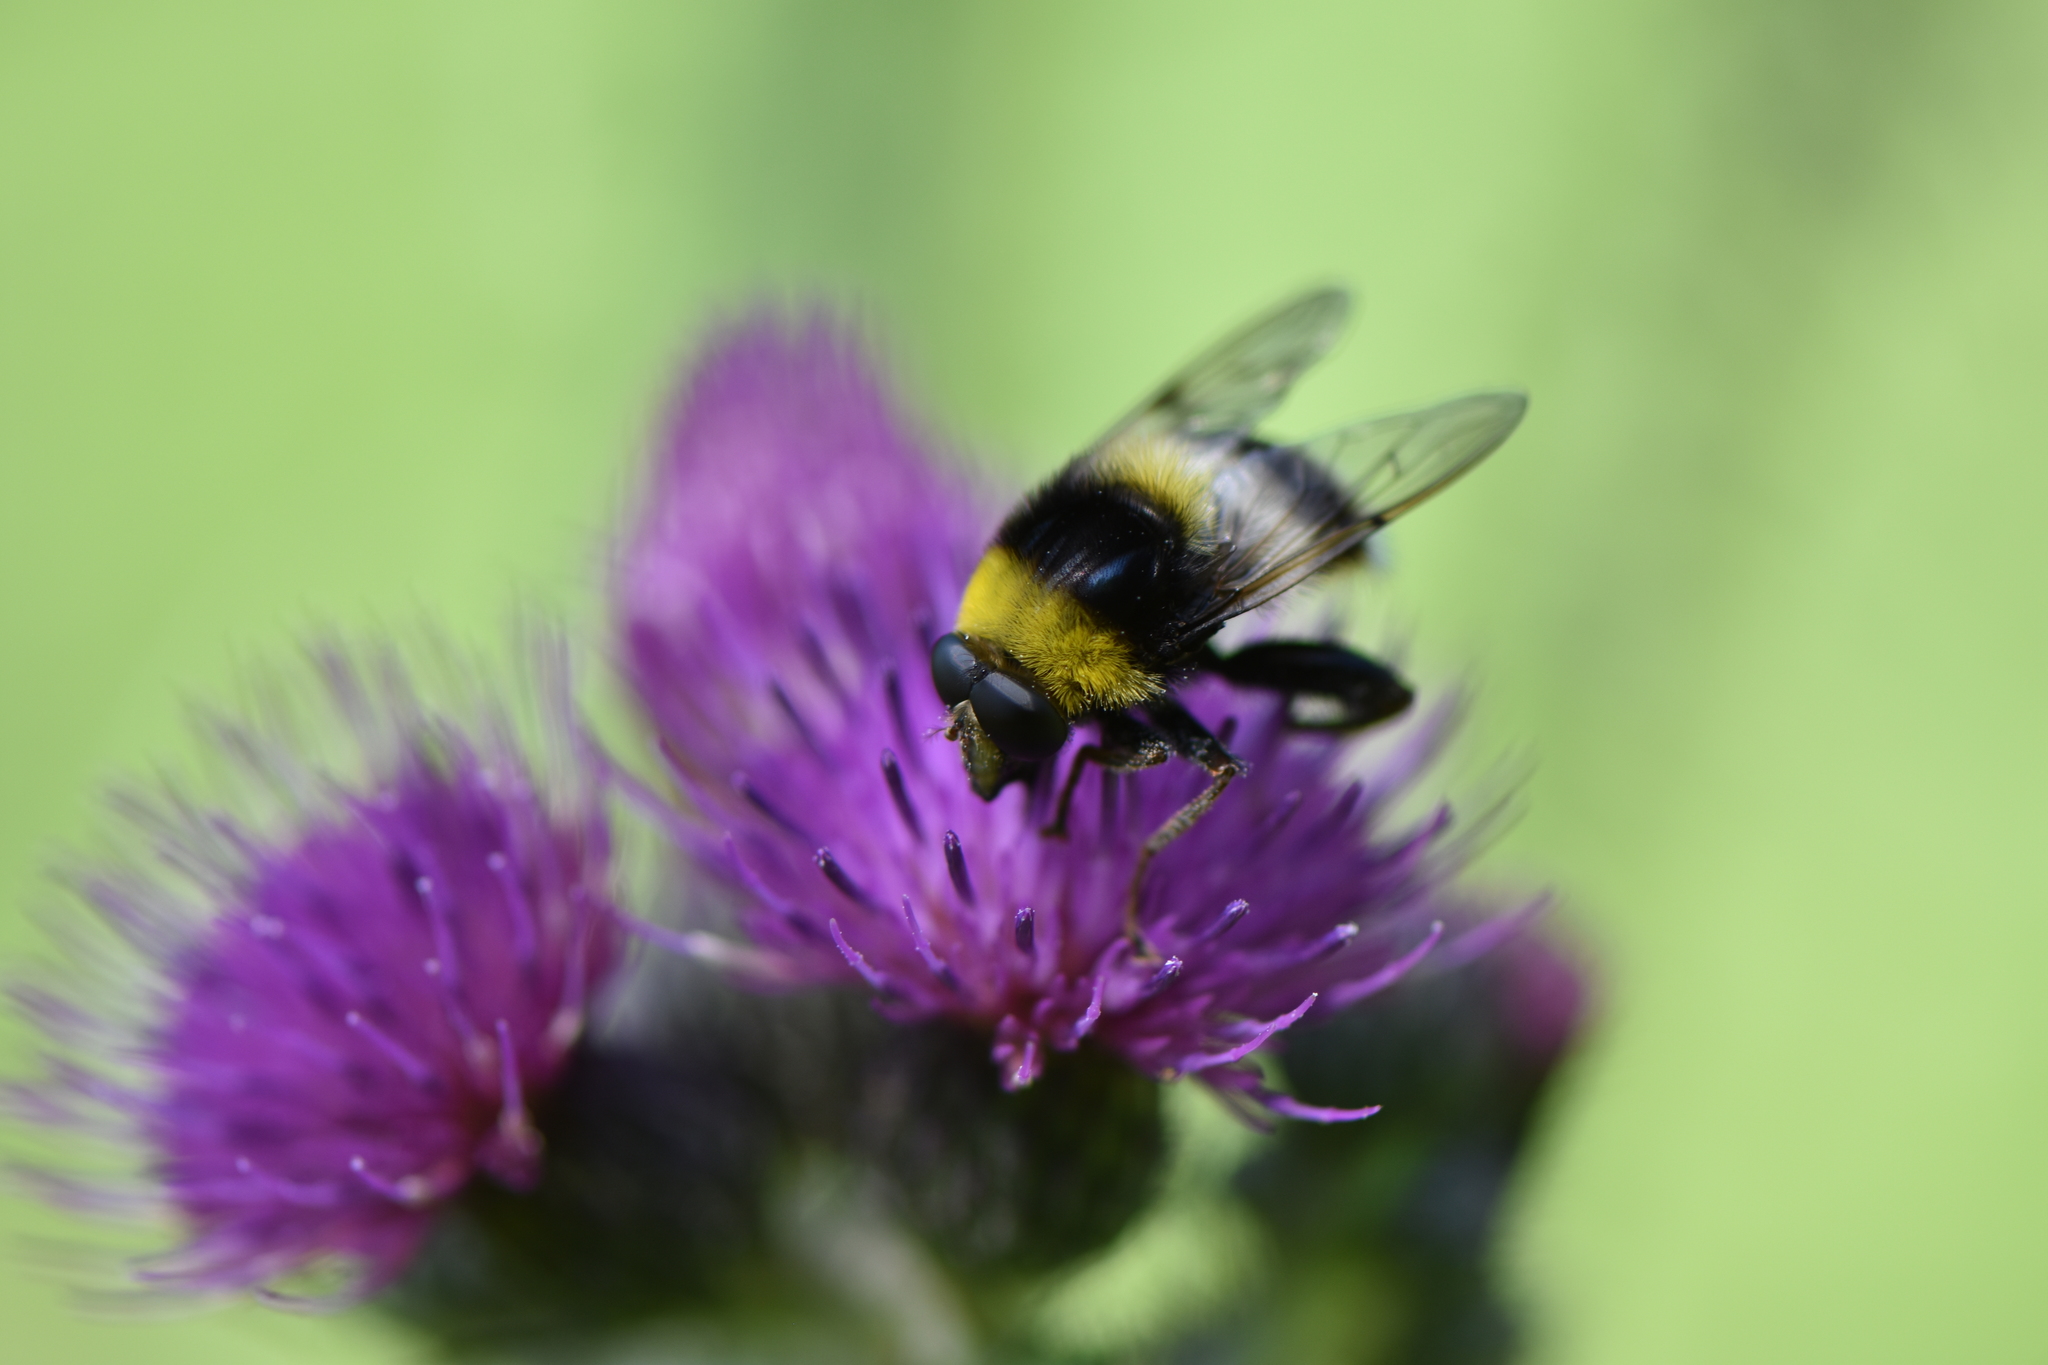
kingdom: Animalia
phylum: Arthropoda
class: Insecta
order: Diptera
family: Syrphidae
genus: Sericomyia
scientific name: Sericomyia bombiformis
